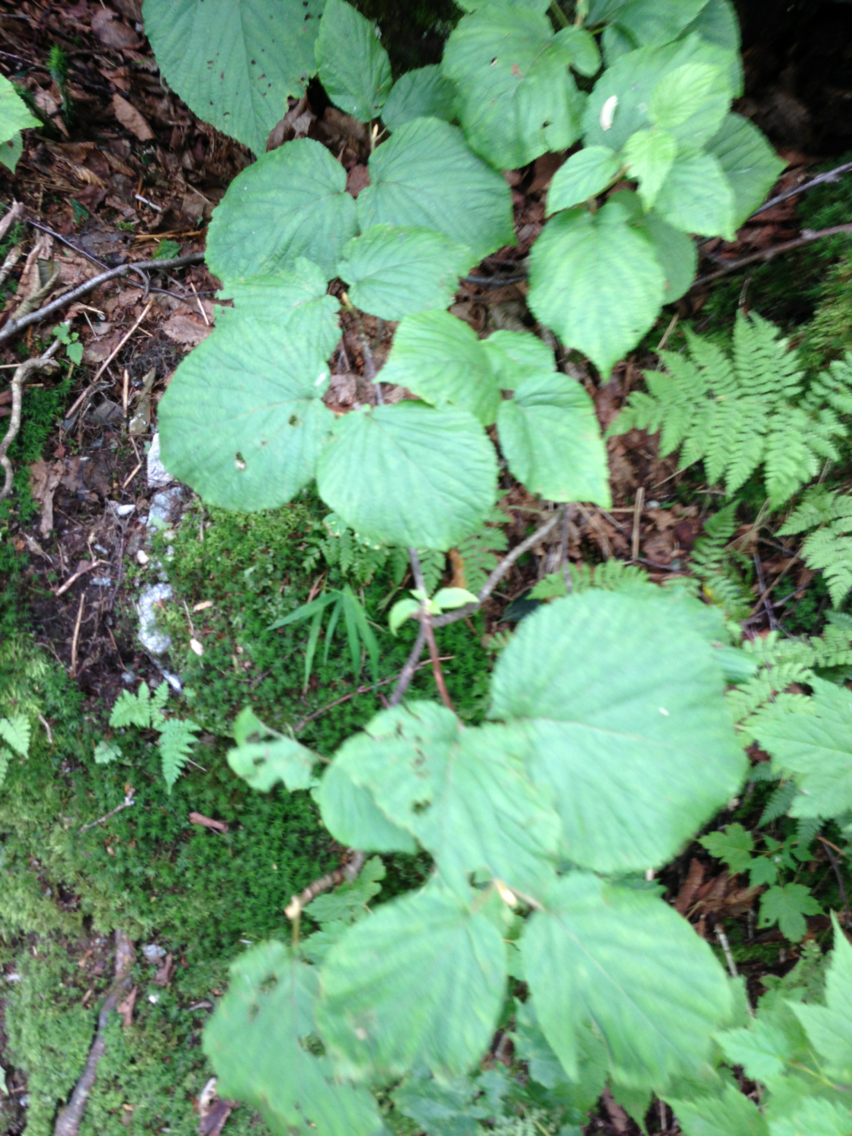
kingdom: Plantae
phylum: Tracheophyta
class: Magnoliopsida
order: Dipsacales
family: Viburnaceae
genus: Viburnum
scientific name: Viburnum lantanoides
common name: Hobblebush
